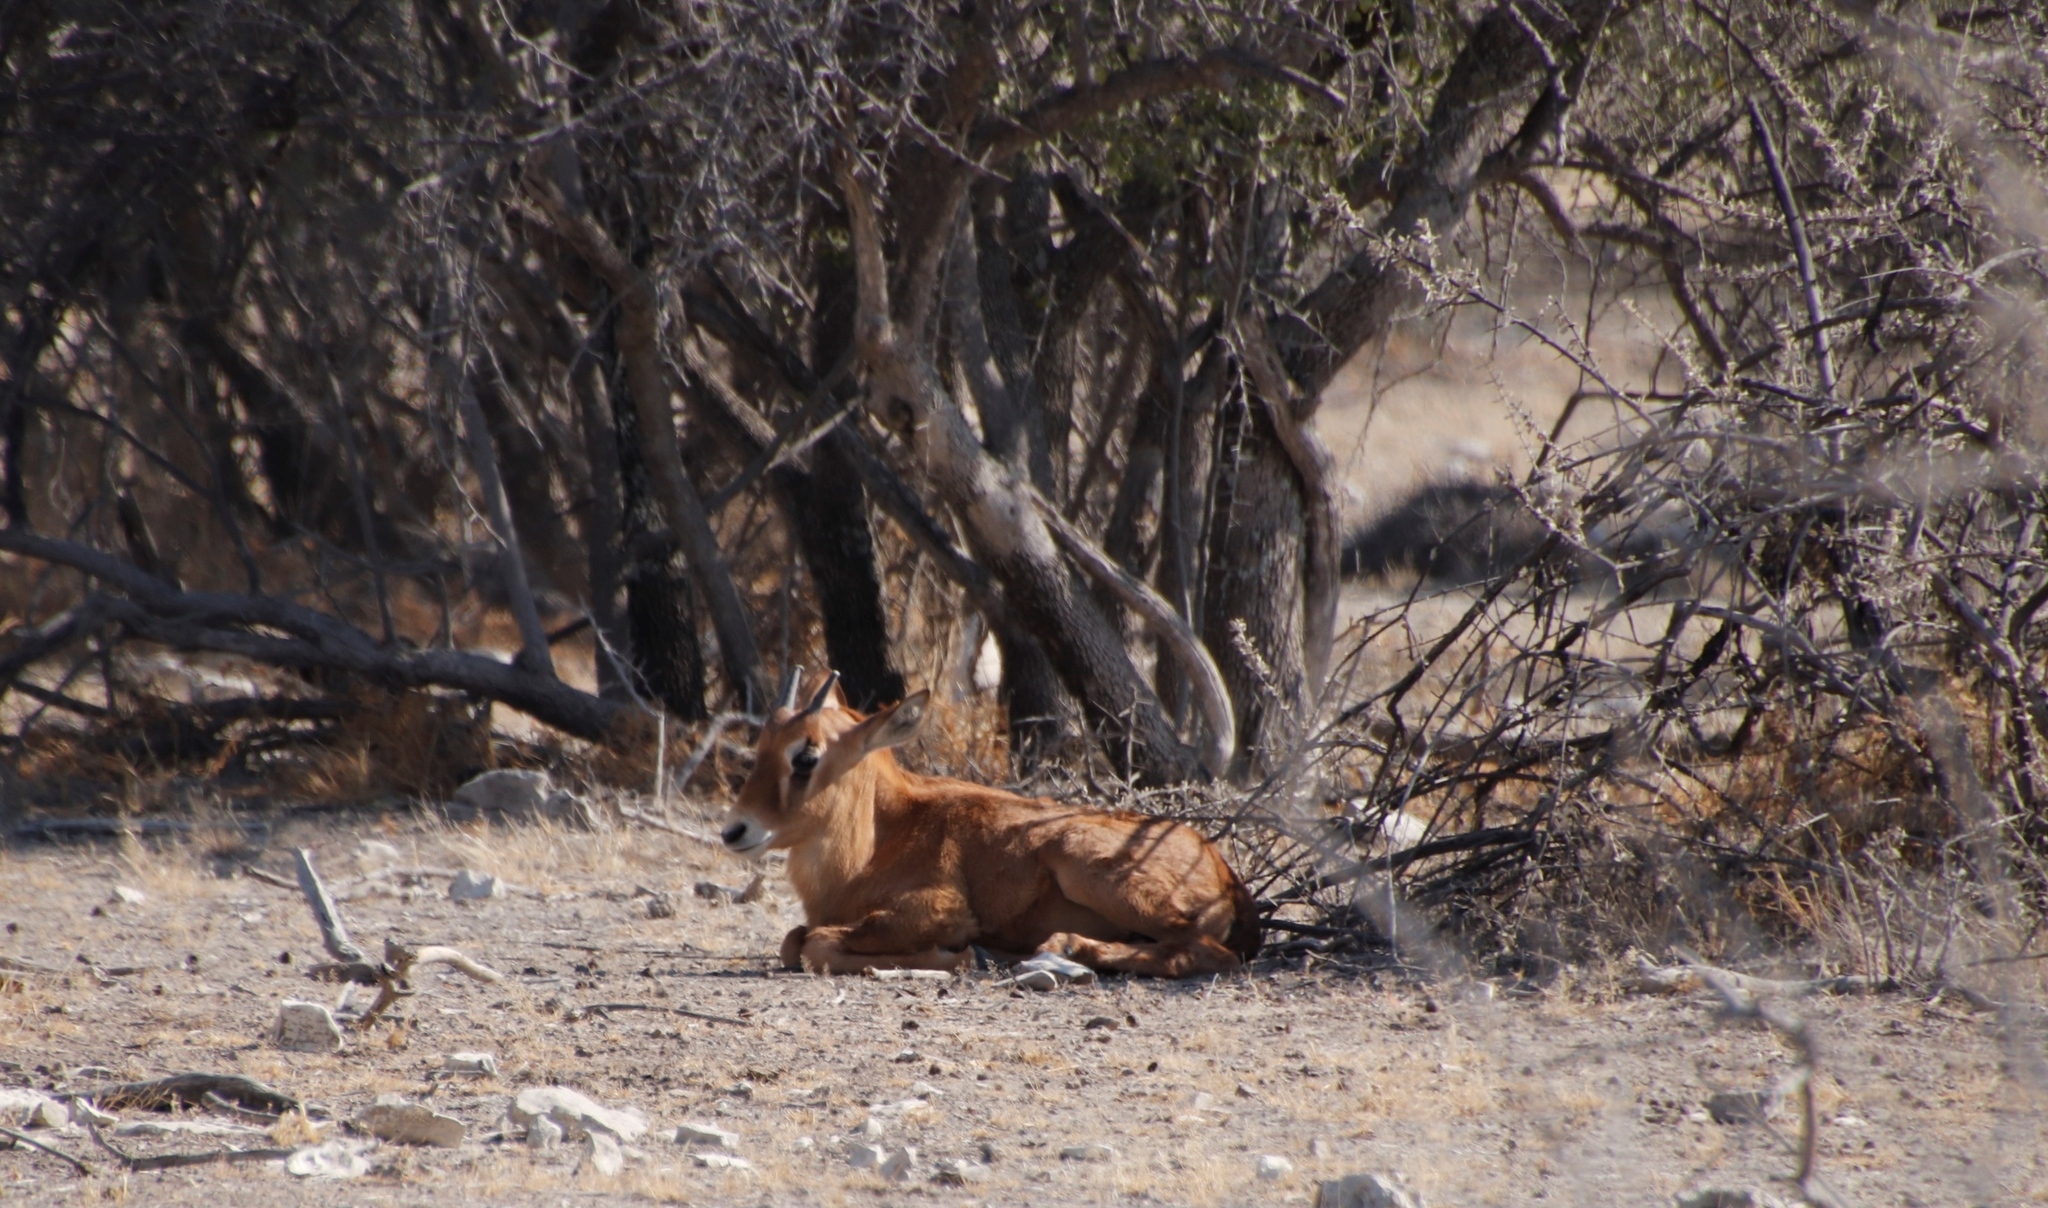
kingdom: Animalia
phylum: Chordata
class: Mammalia
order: Artiodactyla
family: Bovidae
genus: Oryx
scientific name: Oryx gazella
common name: Gemsbok
